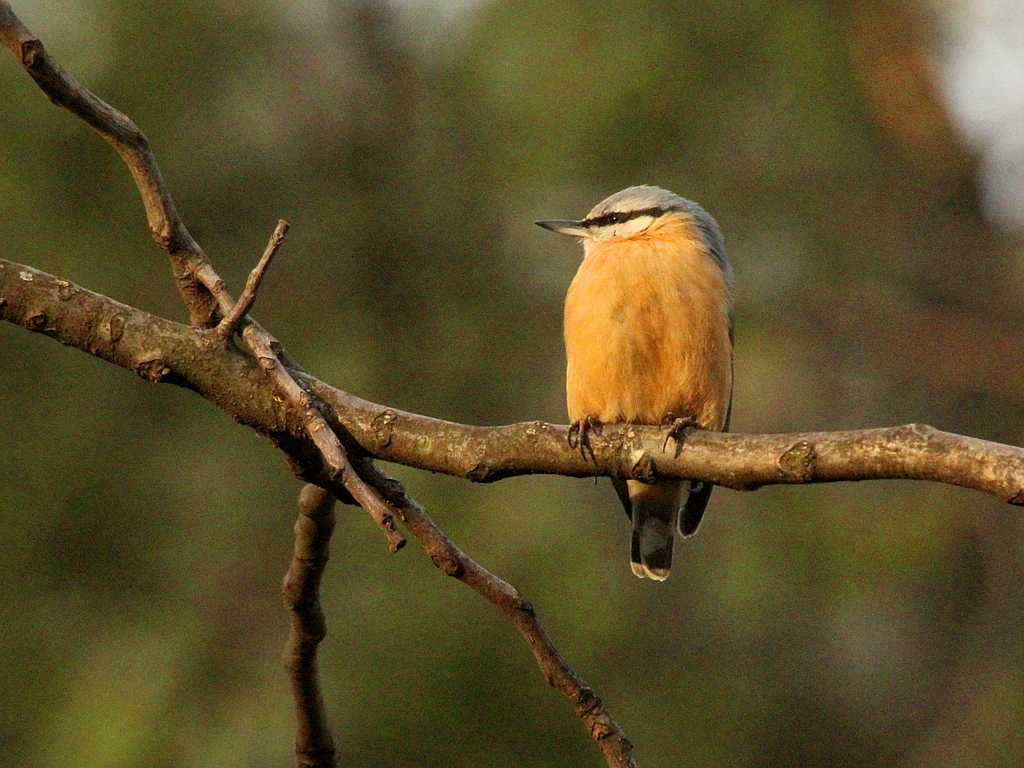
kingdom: Animalia
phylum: Chordata
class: Aves
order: Passeriformes
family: Sittidae
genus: Sitta
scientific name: Sitta europaea
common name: Eurasian nuthatch
